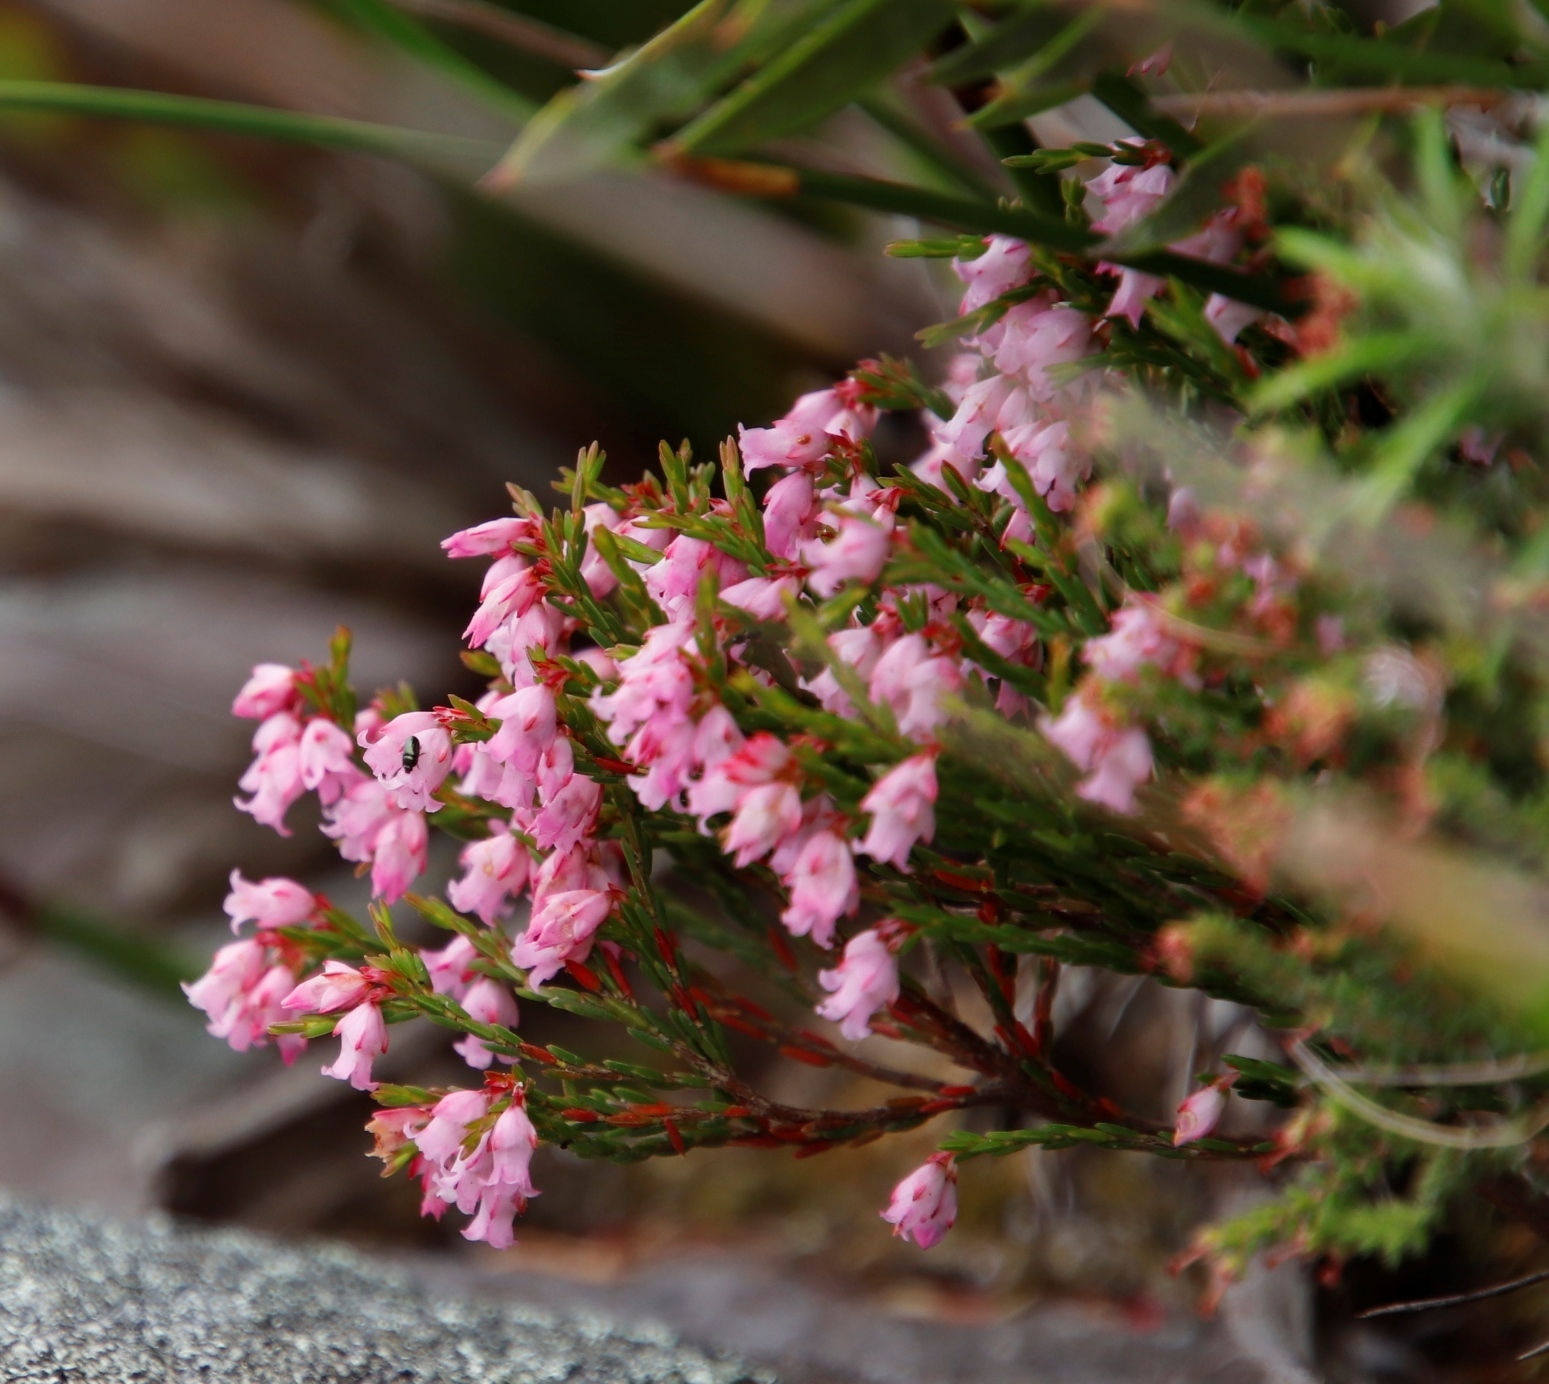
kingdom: Plantae
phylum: Tracheophyta
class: Magnoliopsida
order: Ericales
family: Ericaceae
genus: Erica
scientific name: Erica tenuifolia
